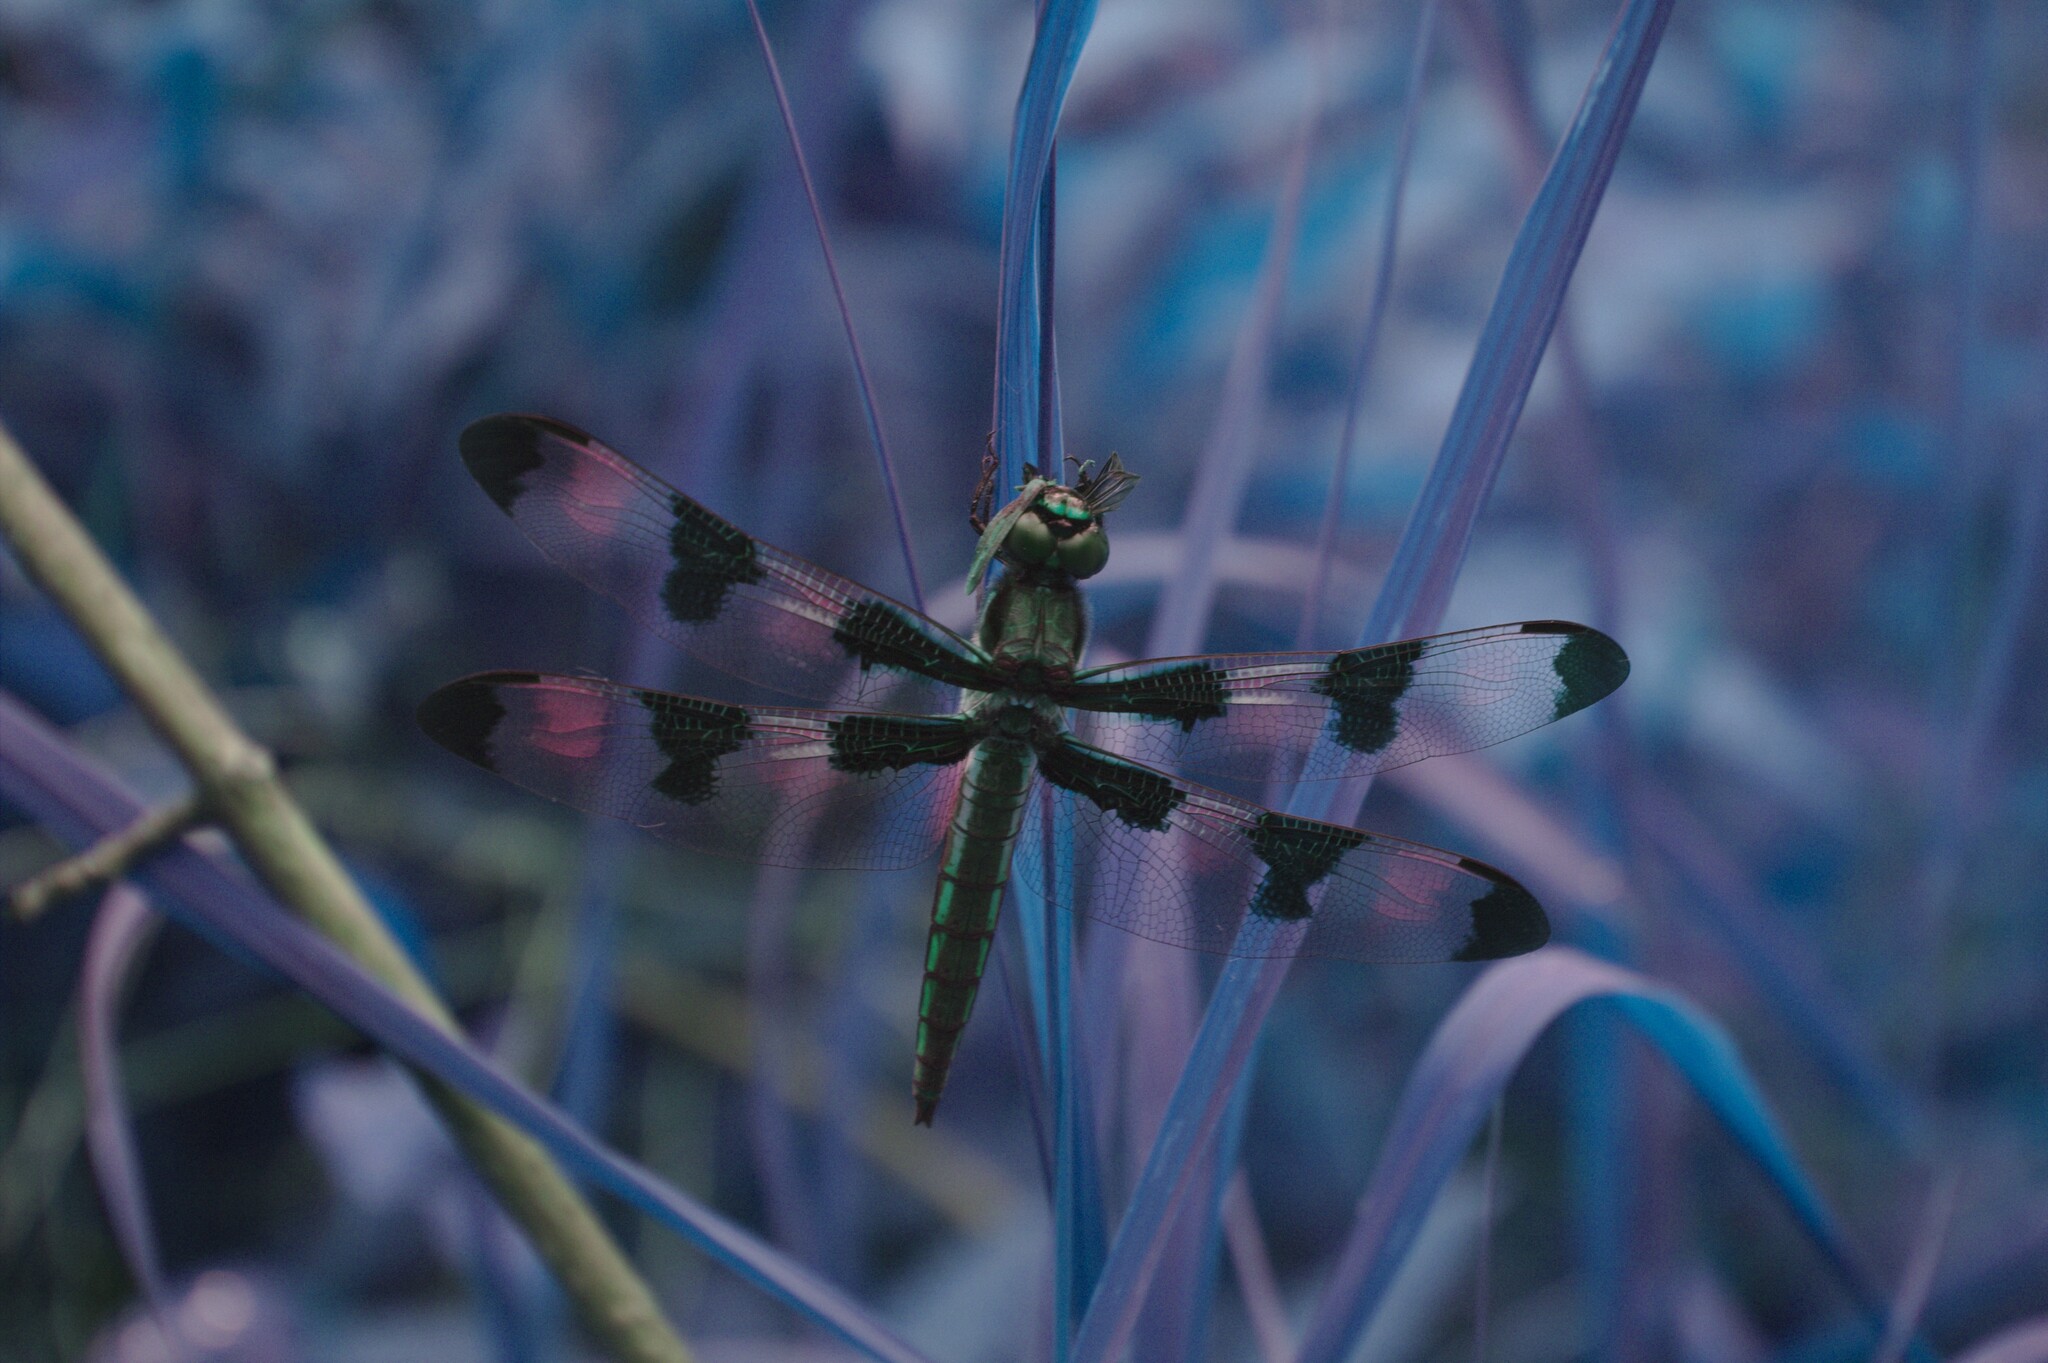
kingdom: Animalia
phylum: Arthropoda
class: Insecta
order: Odonata
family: Libellulidae
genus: Libellula
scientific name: Libellula pulchella
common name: Twelve-spotted skimmer
